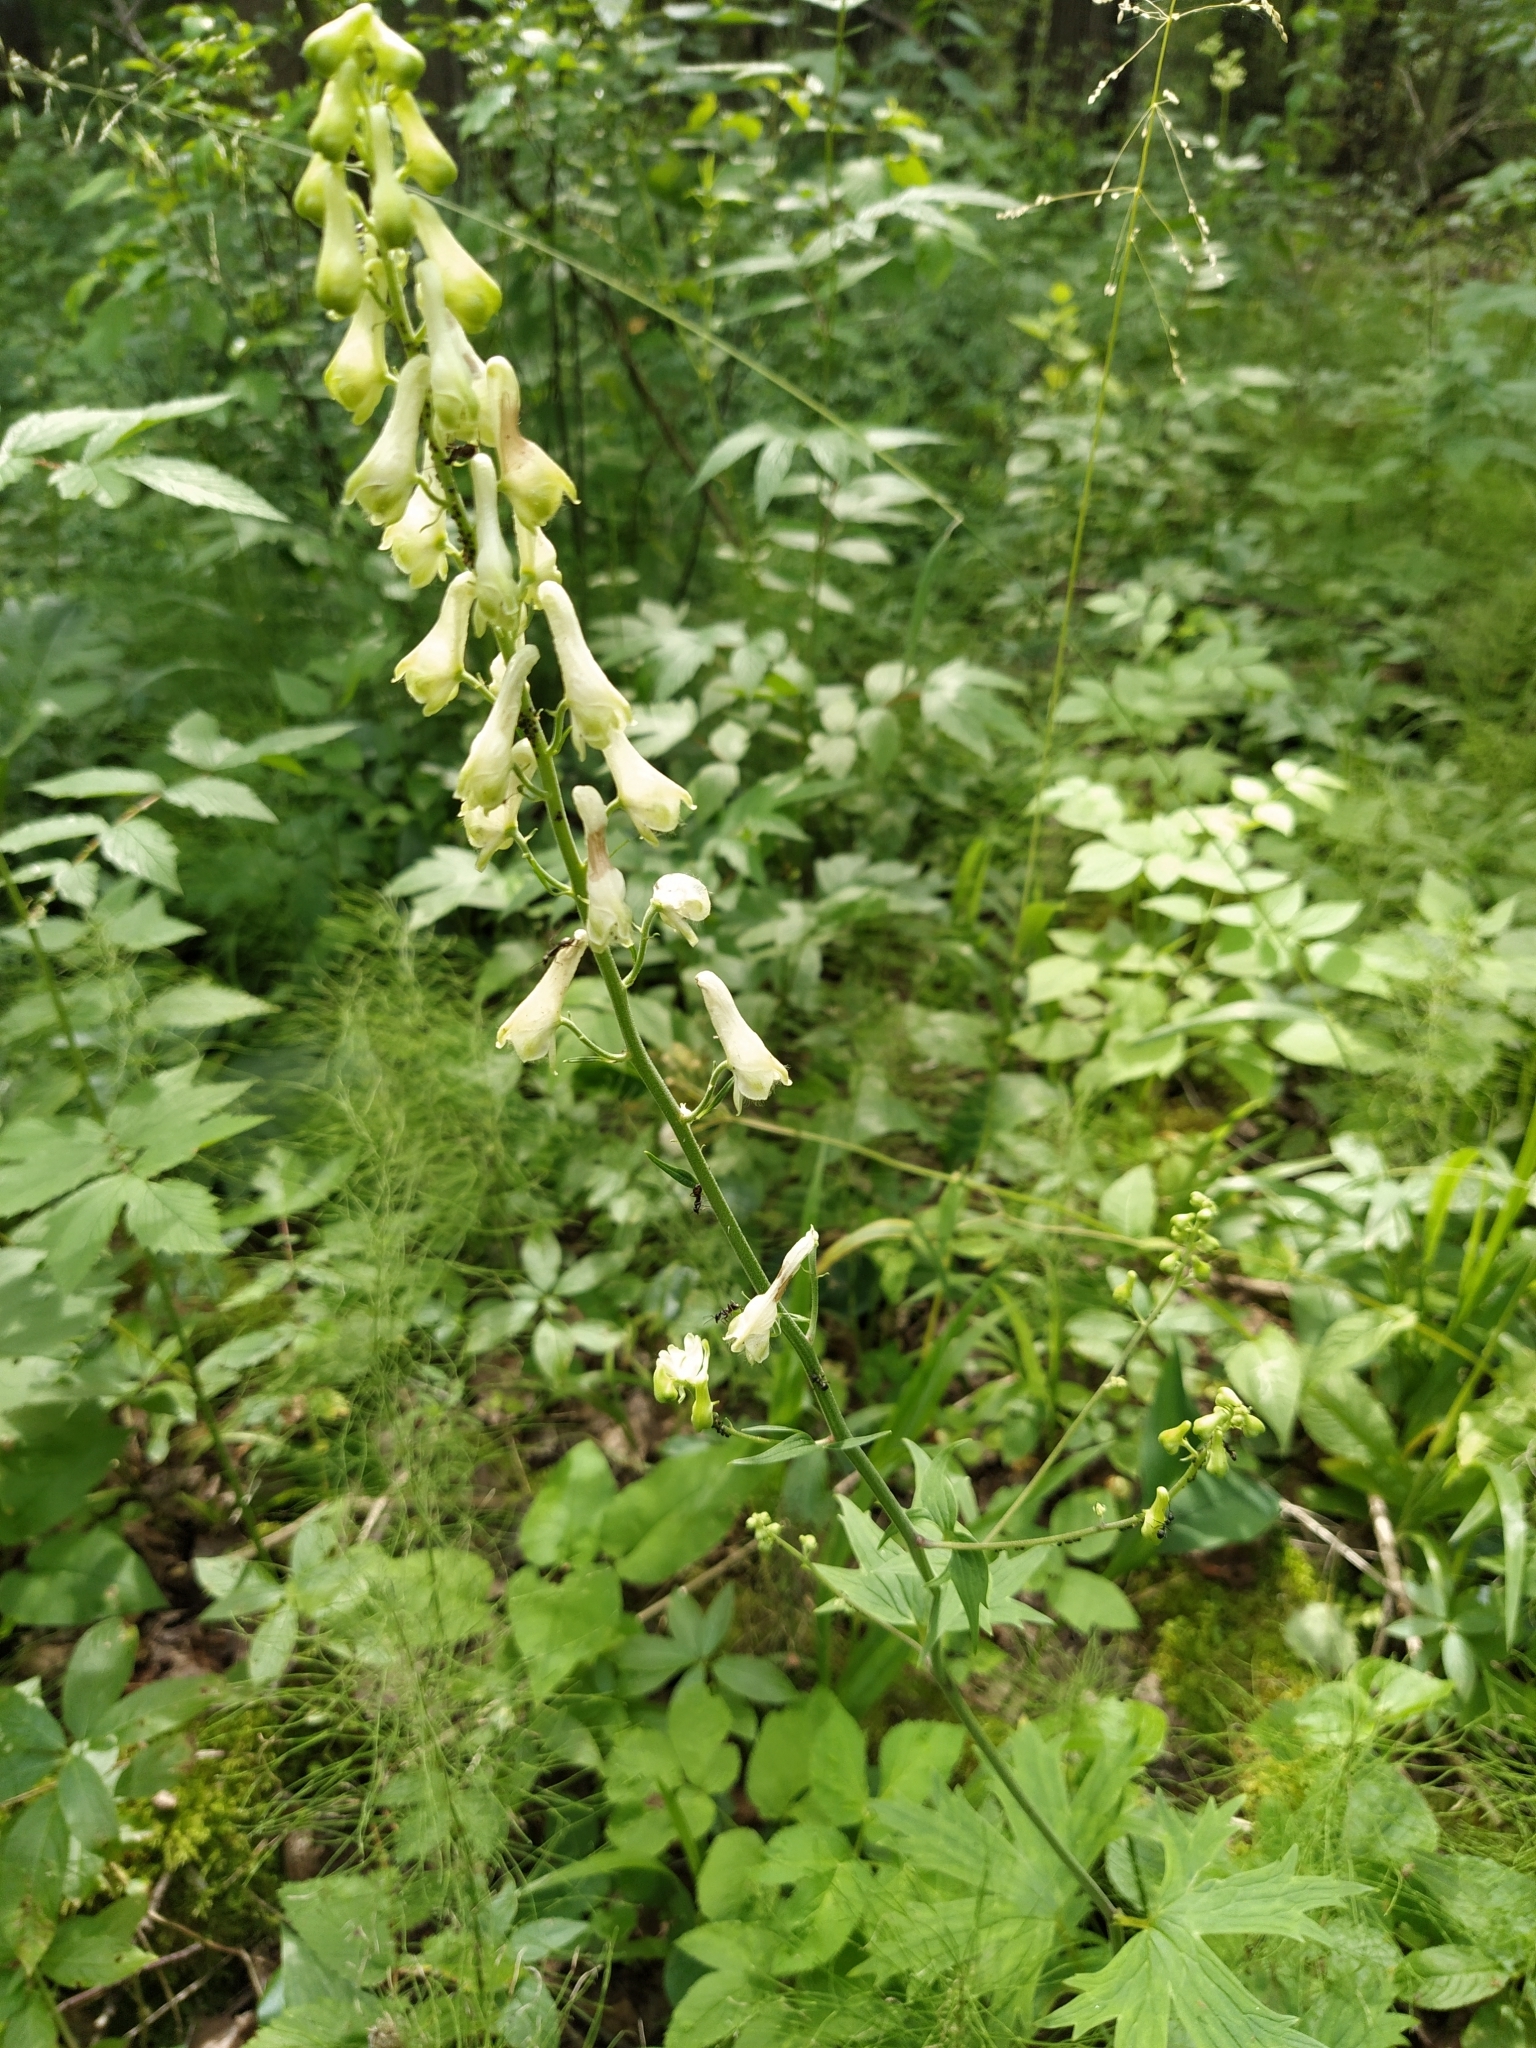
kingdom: Plantae
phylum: Tracheophyta
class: Magnoliopsida
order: Ranunculales
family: Ranunculaceae
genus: Aconitum
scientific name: Aconitum lasiostomum
